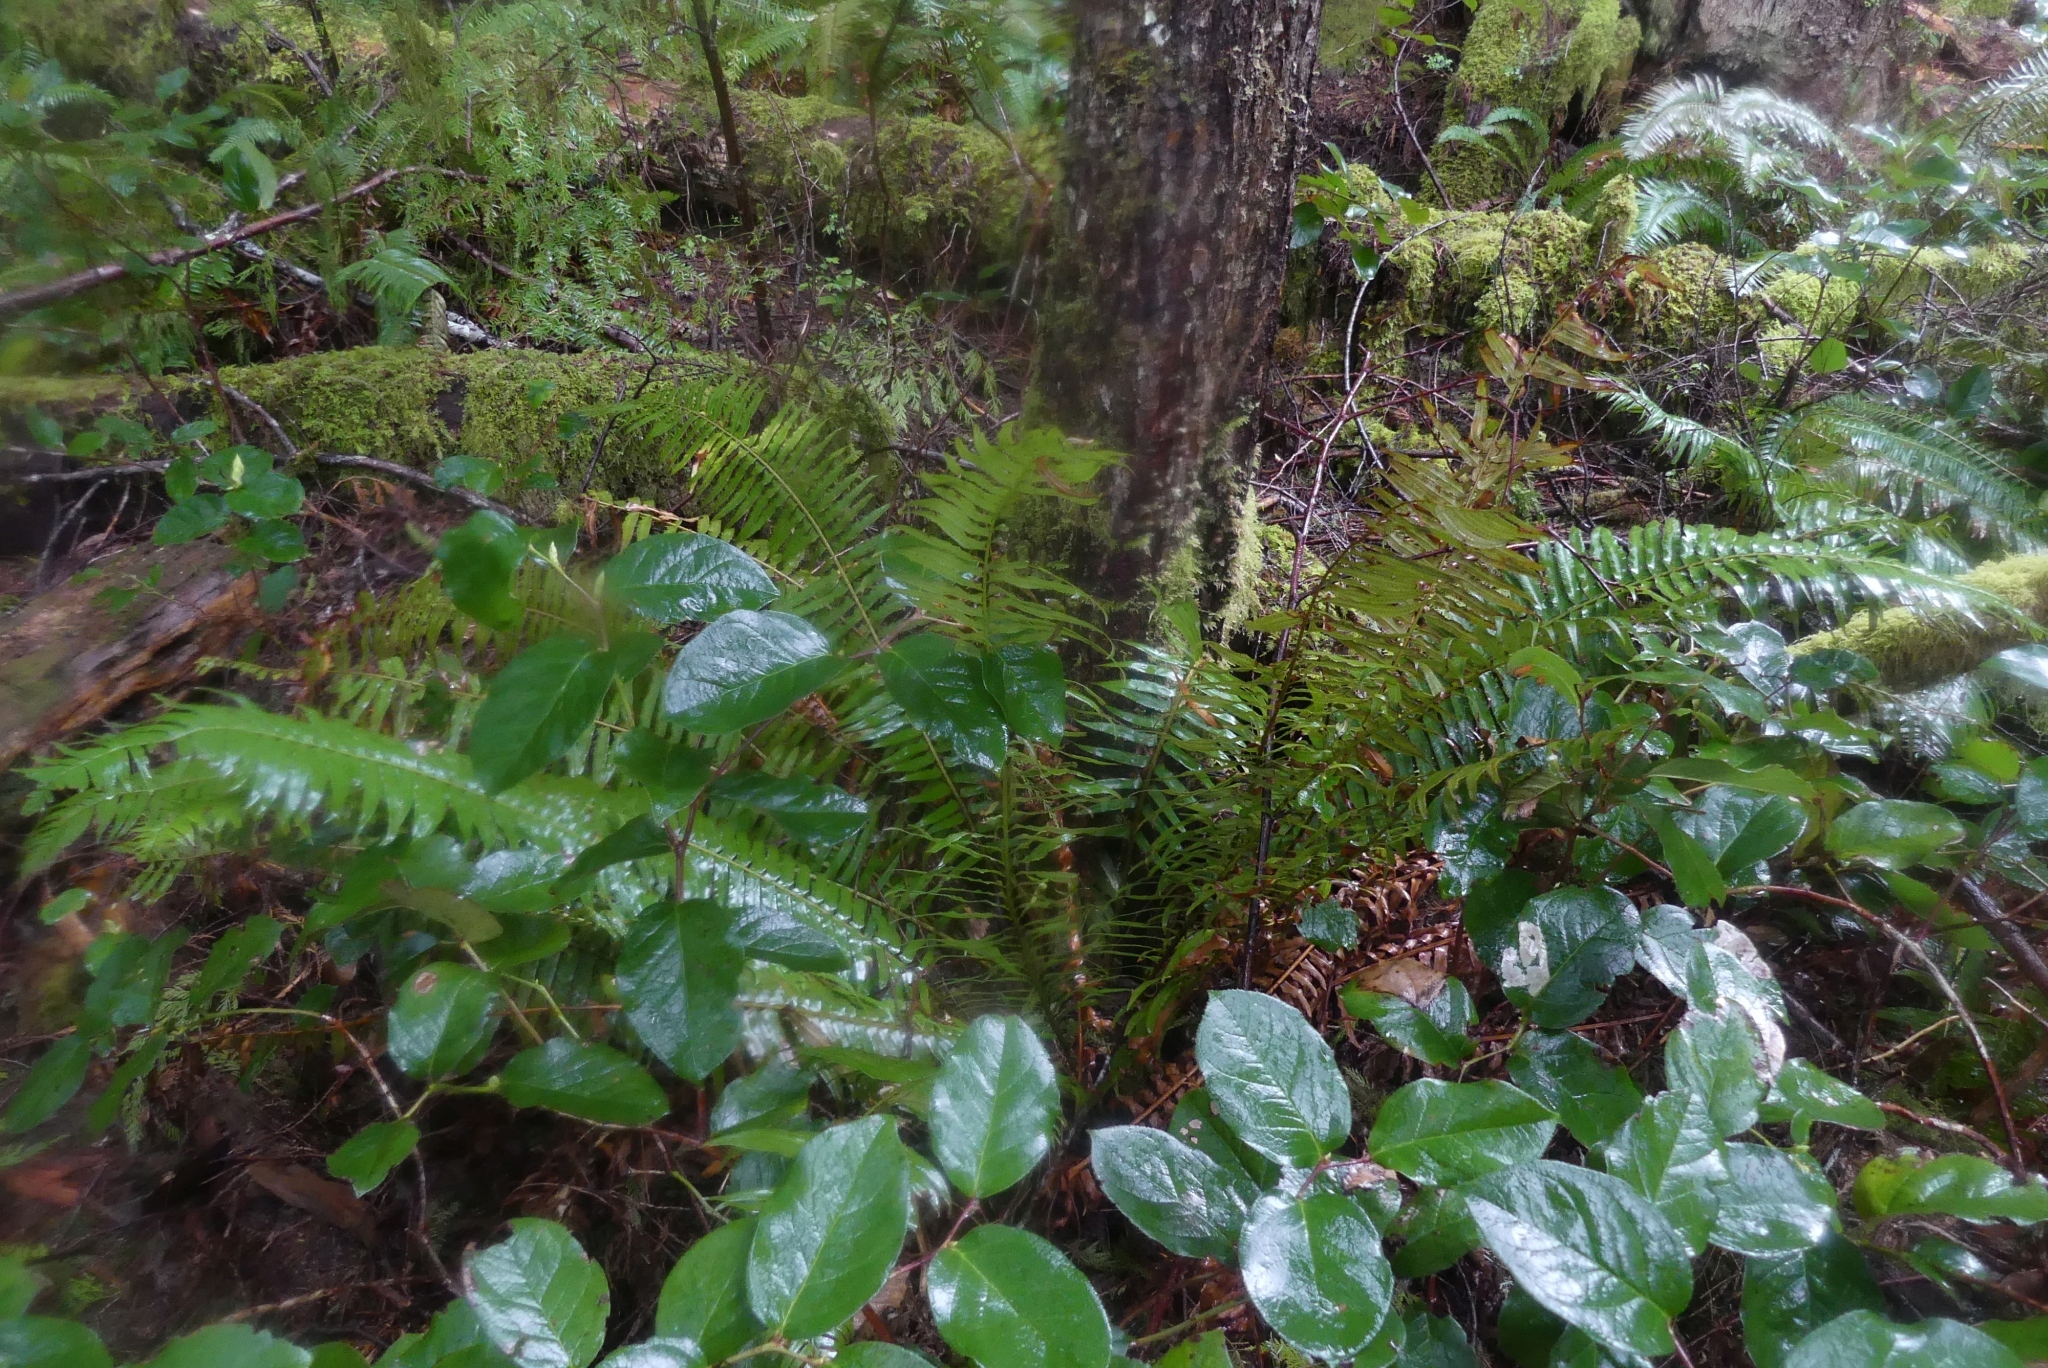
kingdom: Plantae
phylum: Tracheophyta
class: Polypodiopsida
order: Polypodiales
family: Dryopteridaceae
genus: Polystichum
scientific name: Polystichum munitum
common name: Western sword-fern
